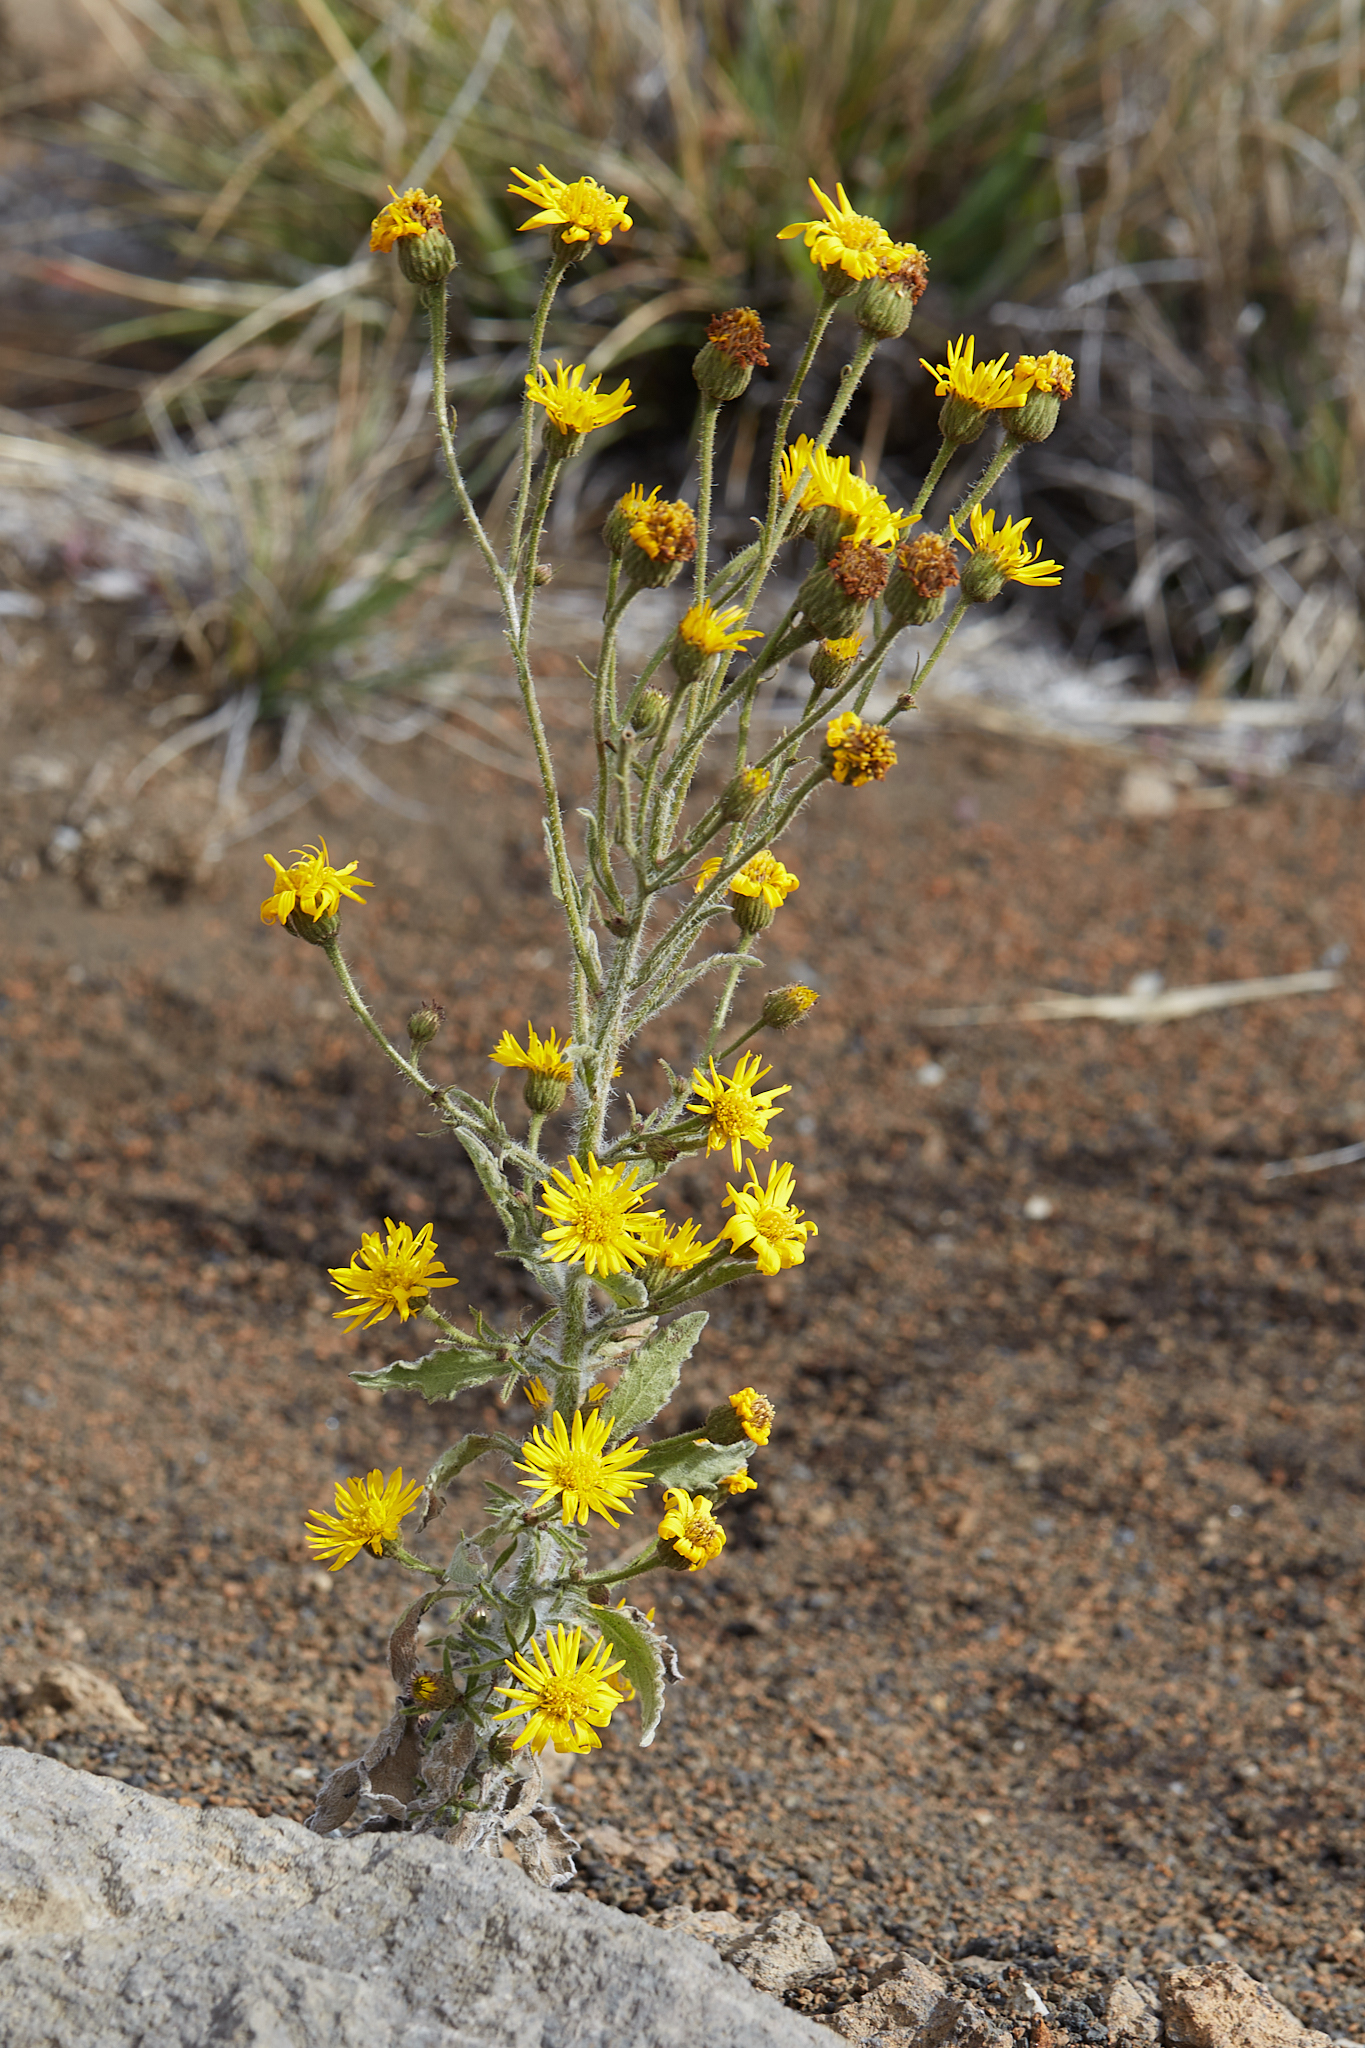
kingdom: Plantae
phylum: Tracheophyta
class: Magnoliopsida
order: Asterales
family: Asteraceae
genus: Heterotheca
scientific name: Heterotheca grandiflora
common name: Telegraphweed
